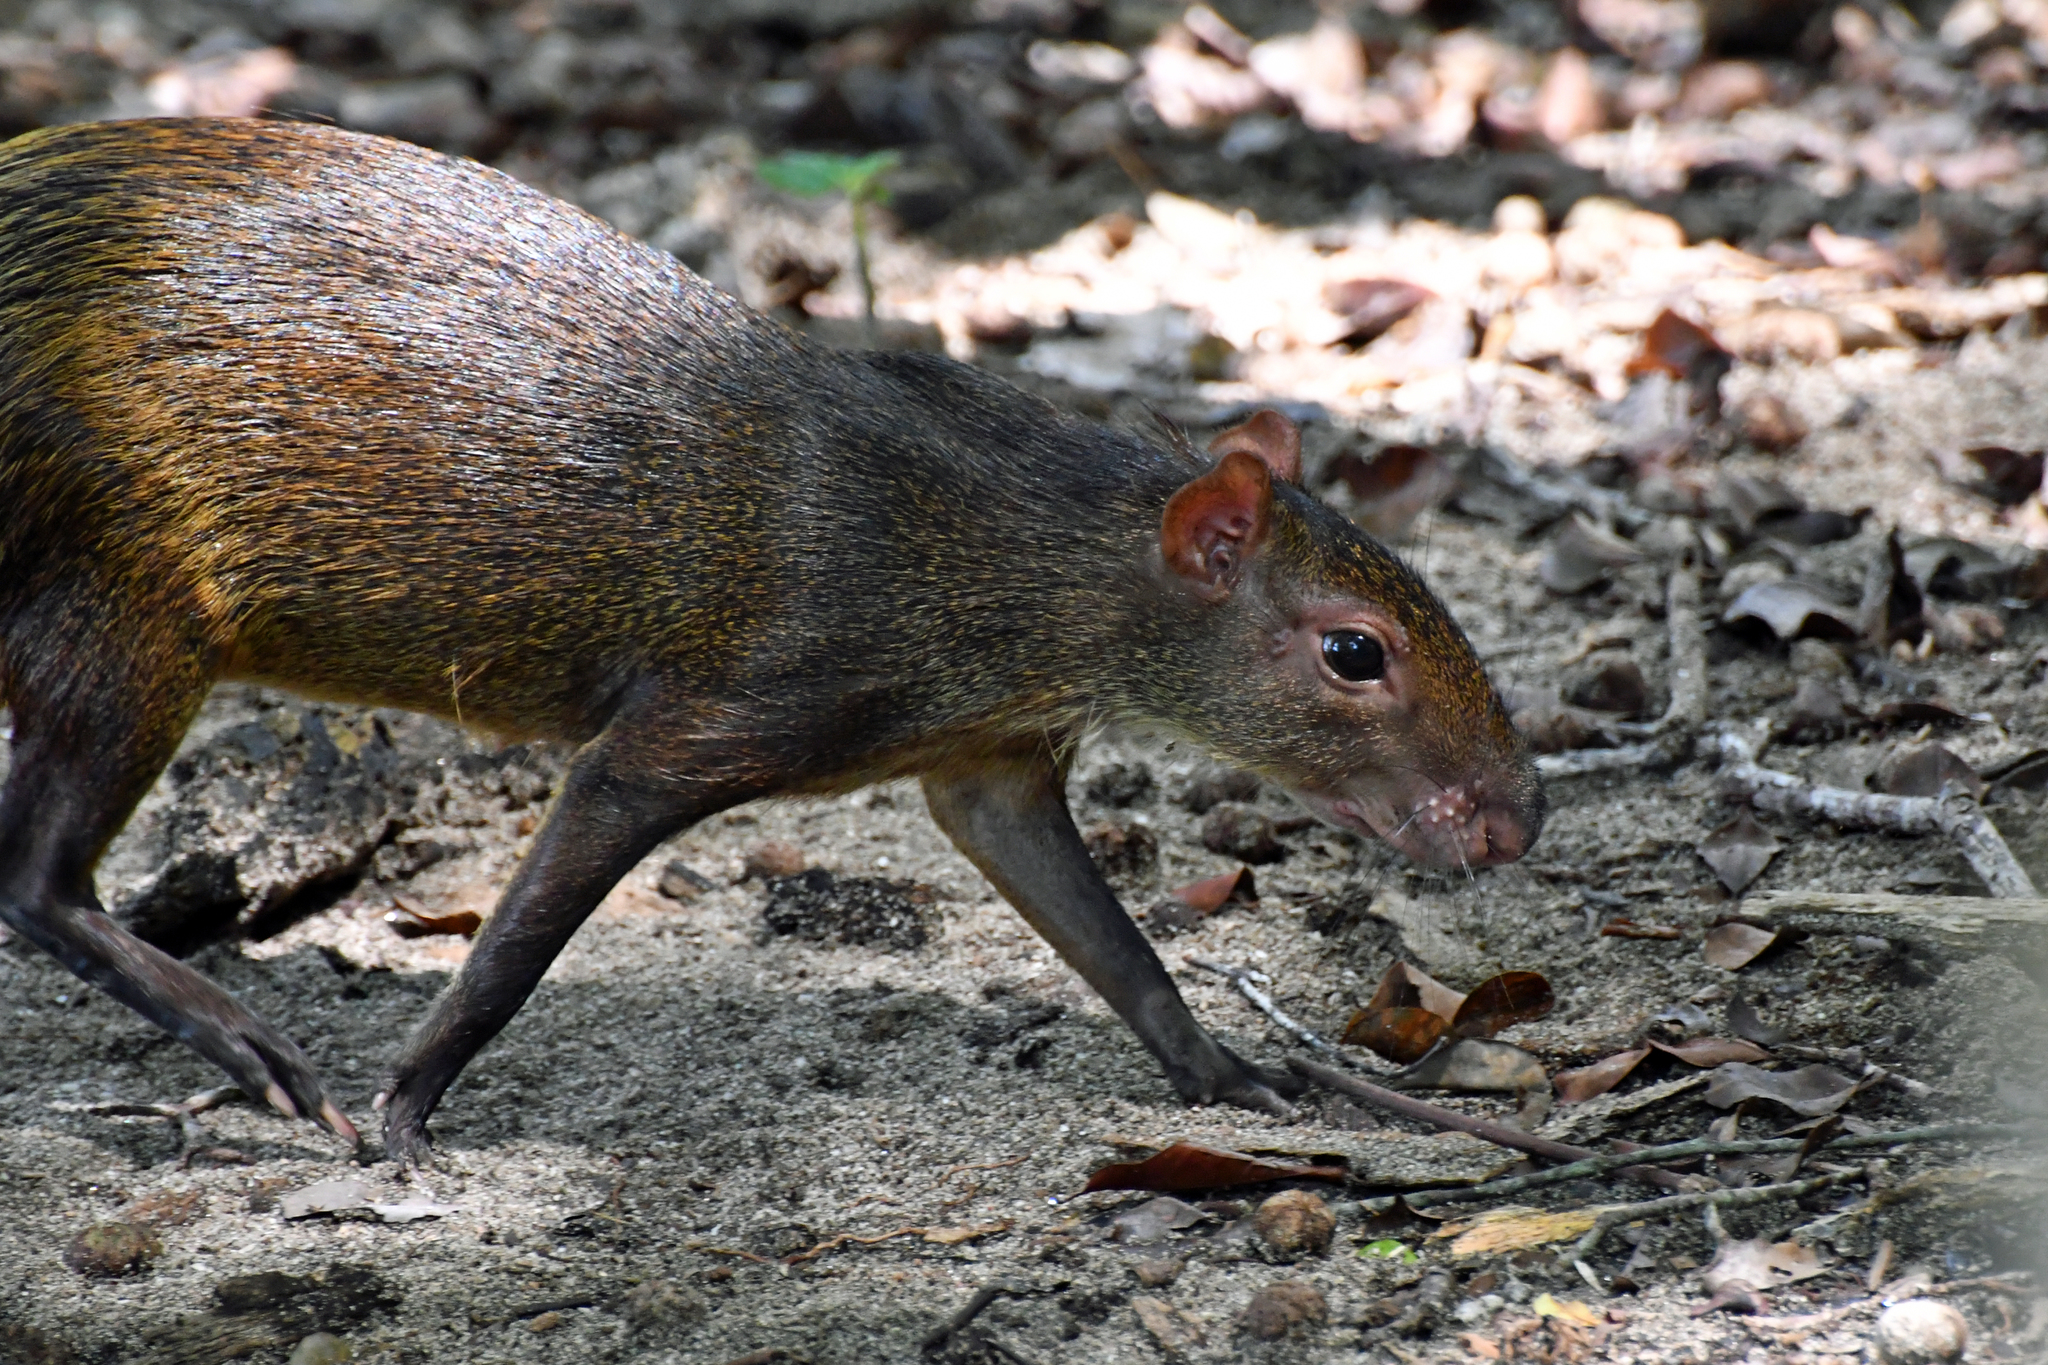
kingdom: Animalia
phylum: Chordata
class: Mammalia
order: Rodentia
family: Dasyproctidae
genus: Dasyprocta
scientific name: Dasyprocta punctata
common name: Central american agouti
